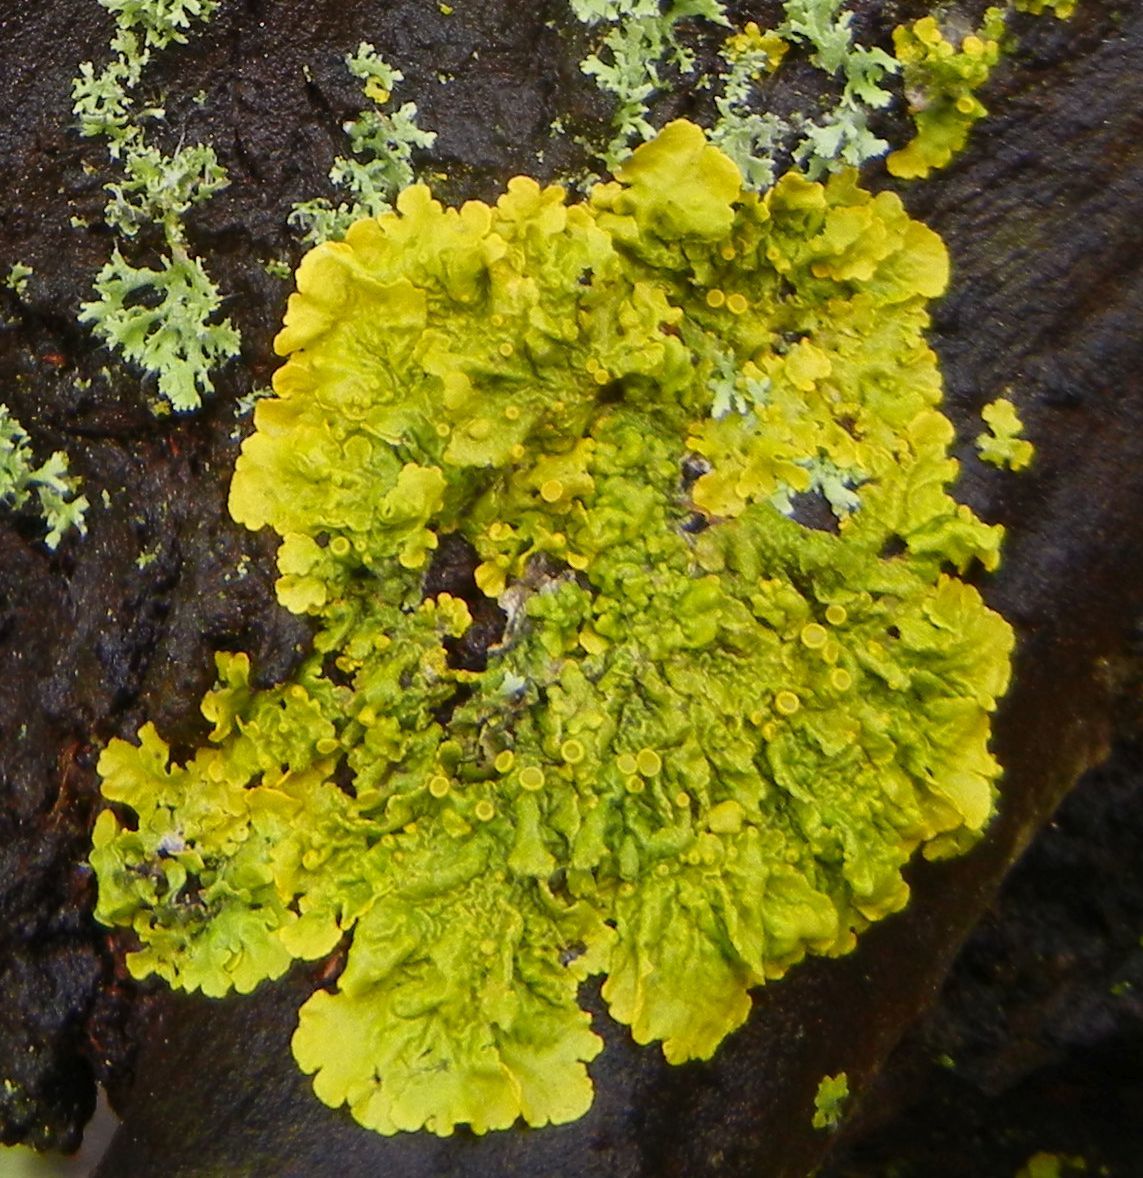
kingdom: Fungi
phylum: Ascomycota
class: Lecanoromycetes
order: Teloschistales
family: Teloschistaceae
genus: Xanthoria
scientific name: Xanthoria parietina
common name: Common orange lichen
